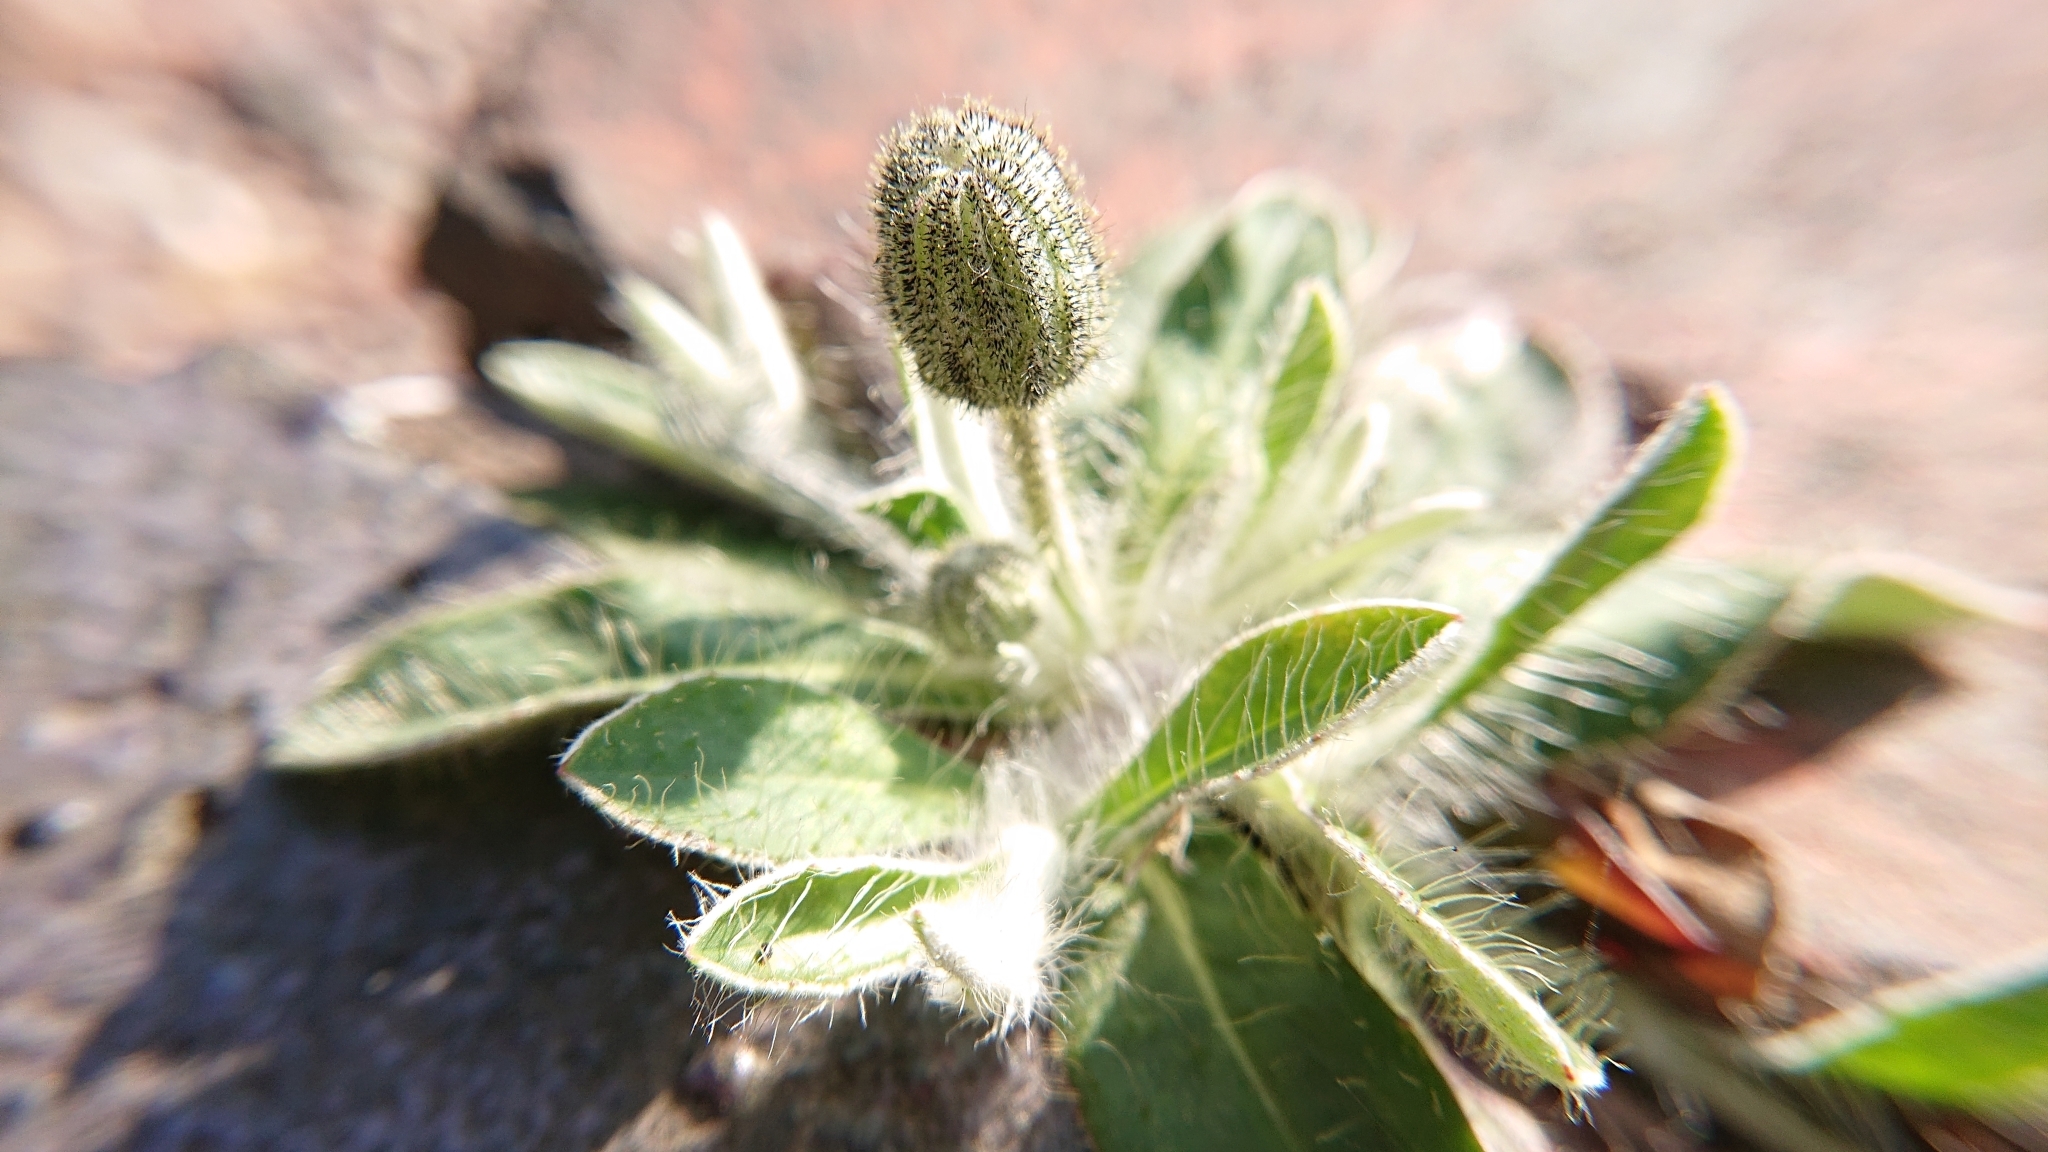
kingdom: Plantae
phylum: Tracheophyta
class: Magnoliopsida
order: Asterales
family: Asteraceae
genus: Pilosella
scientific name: Pilosella officinarum
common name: Mouse-ear hawkweed
